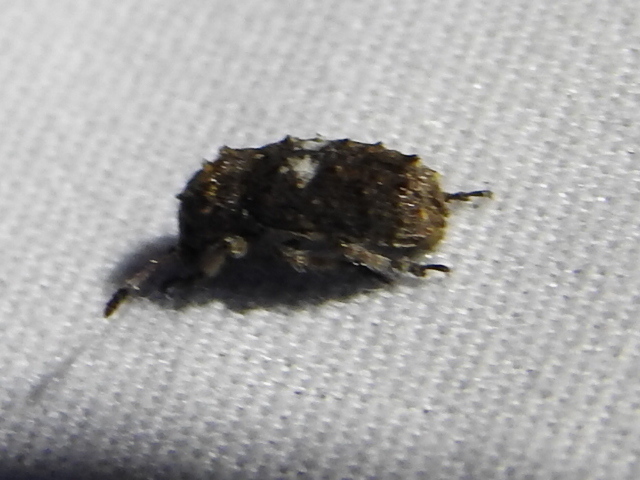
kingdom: Animalia
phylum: Arthropoda
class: Insecta
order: Coleoptera
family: Anthribidae
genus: Toxonotus
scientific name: Toxonotus cornutus
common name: Fungus weevil
